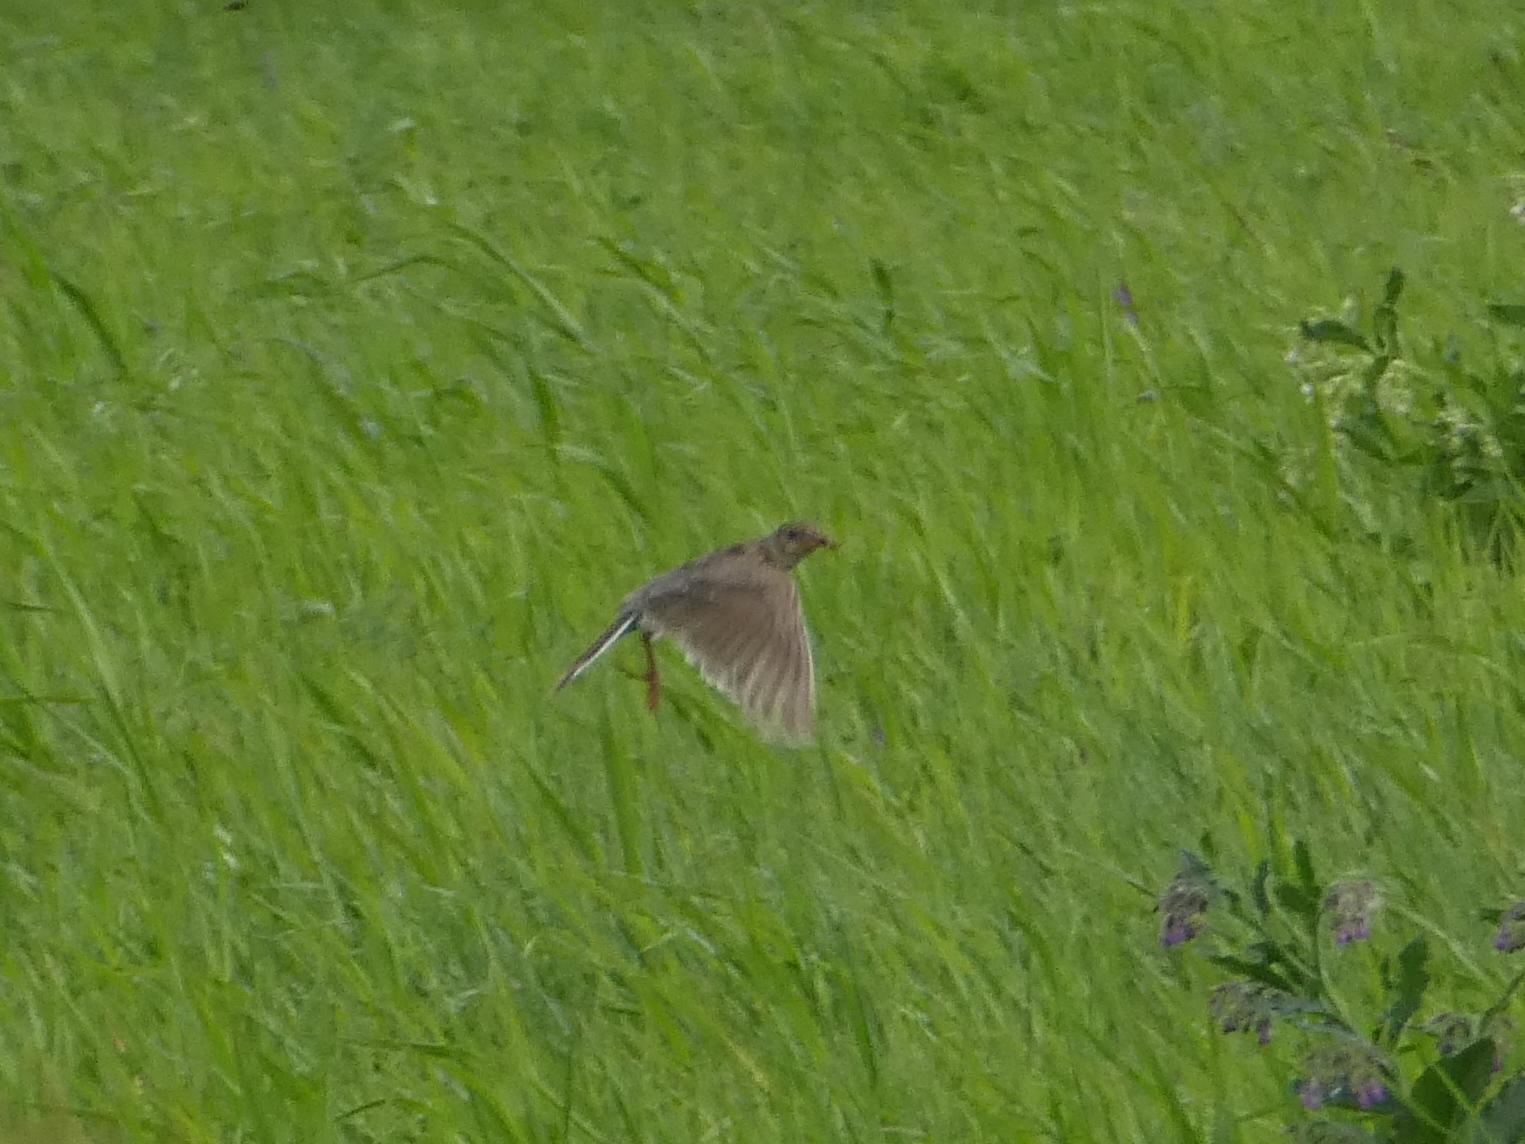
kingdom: Animalia
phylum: Chordata
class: Aves
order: Passeriformes
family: Alaudidae
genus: Alauda
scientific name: Alauda arvensis
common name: Eurasian skylark
